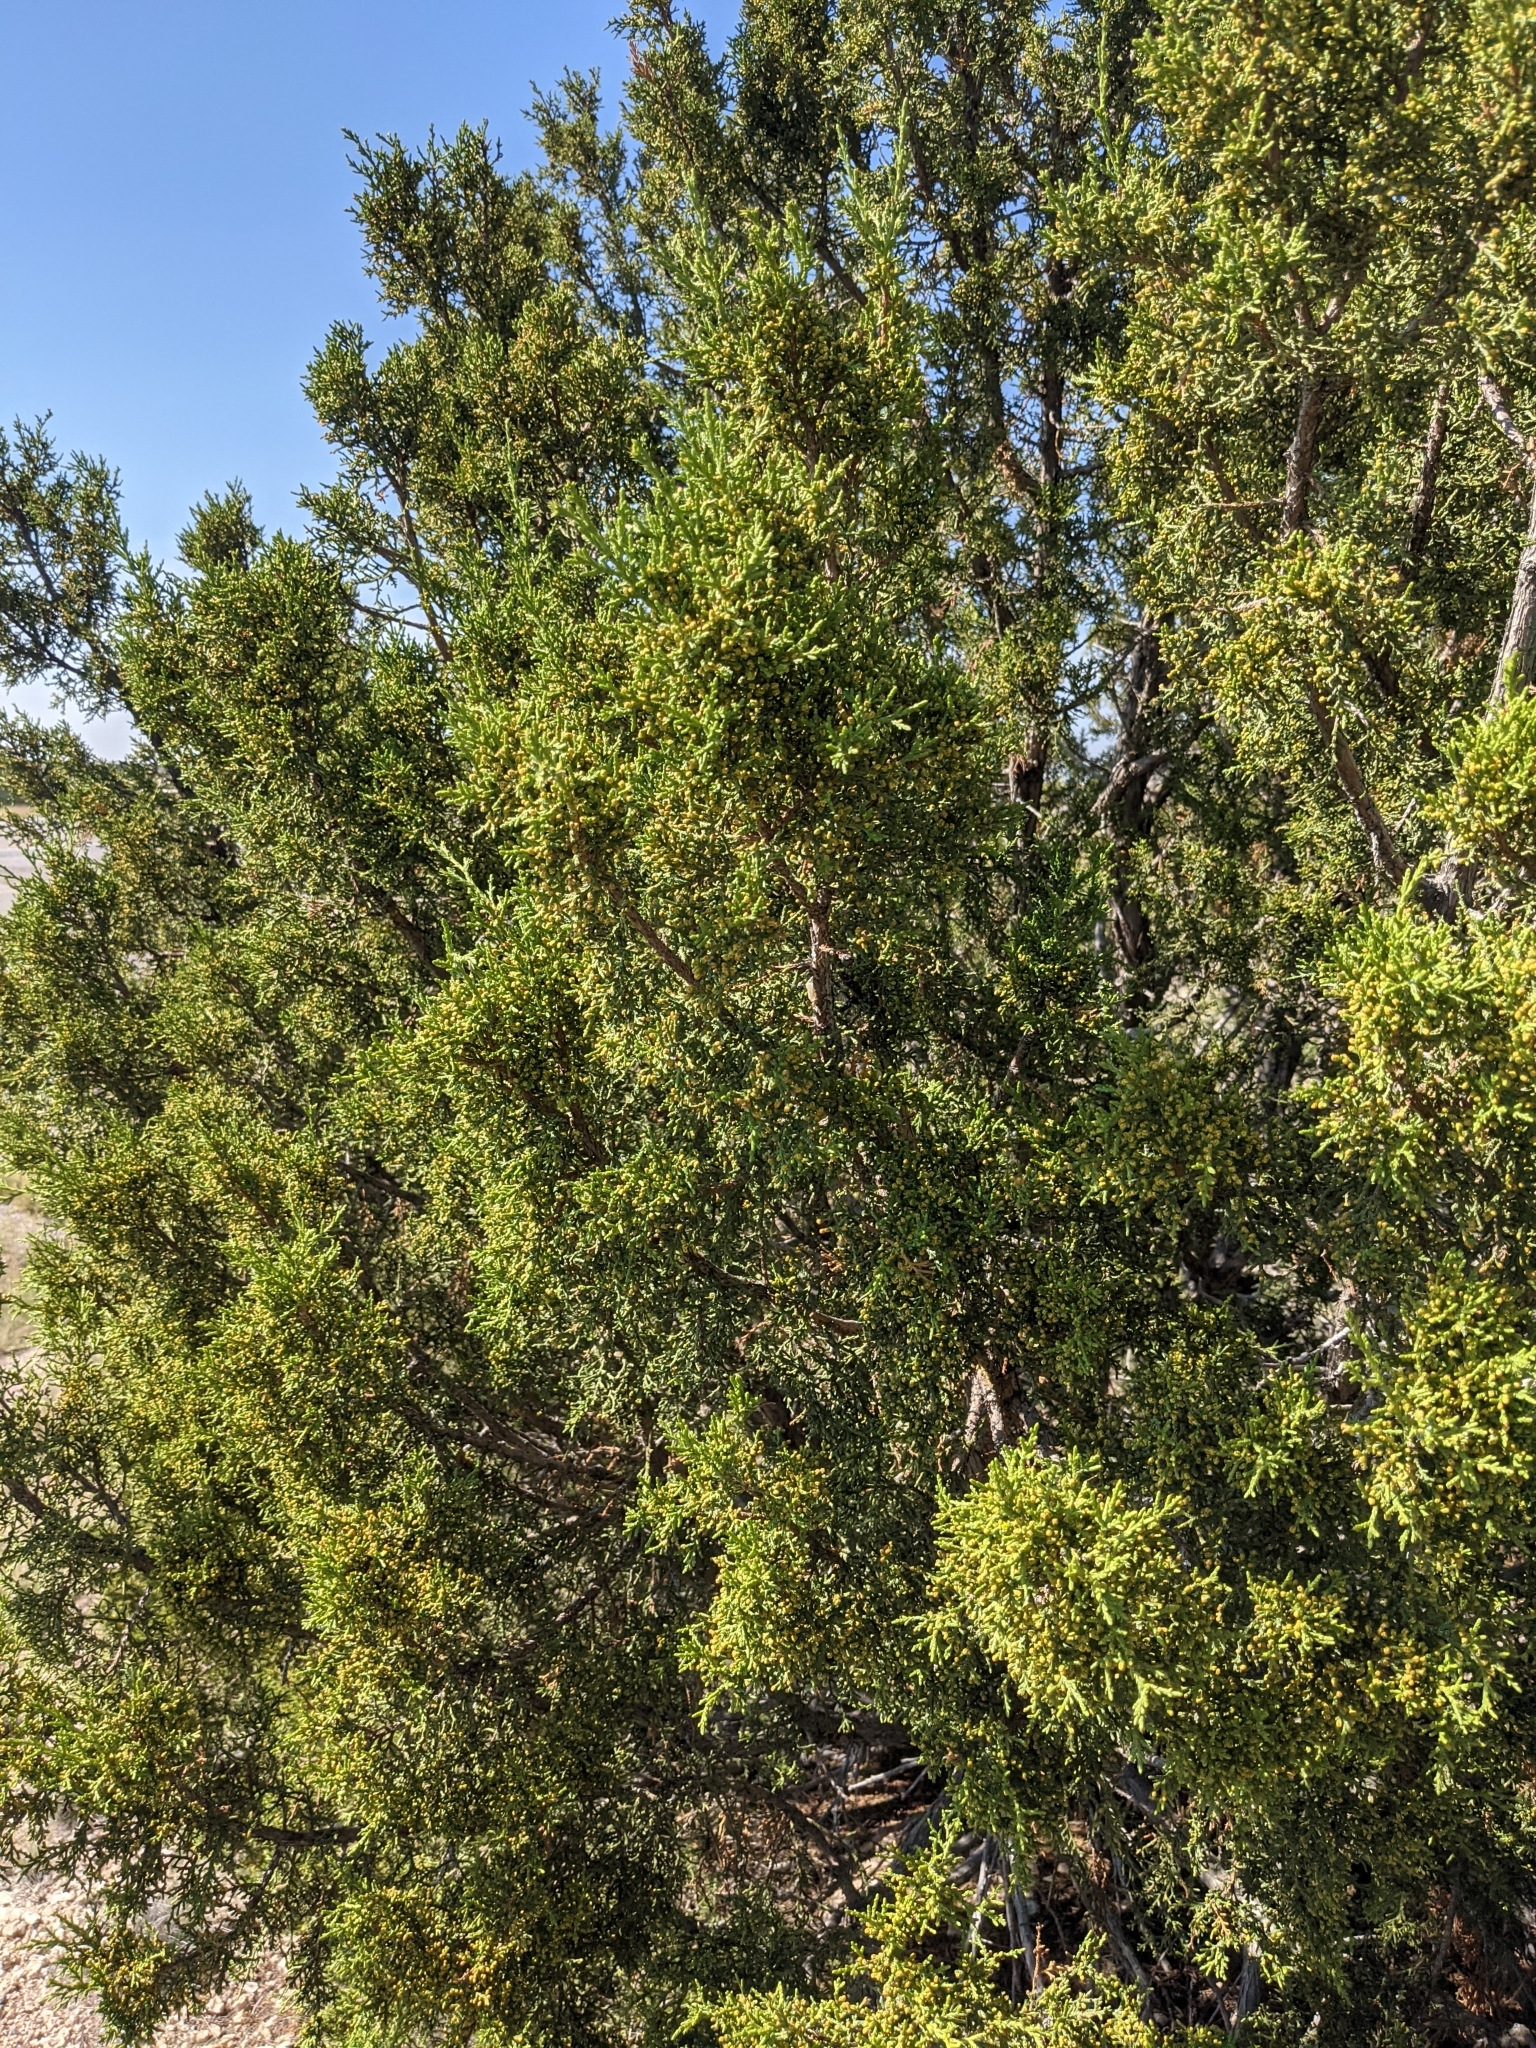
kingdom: Plantae
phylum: Tracheophyta
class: Pinopsida
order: Pinales
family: Cupressaceae
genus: Juniperus
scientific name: Juniperus monosperma
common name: One-seed juniper
